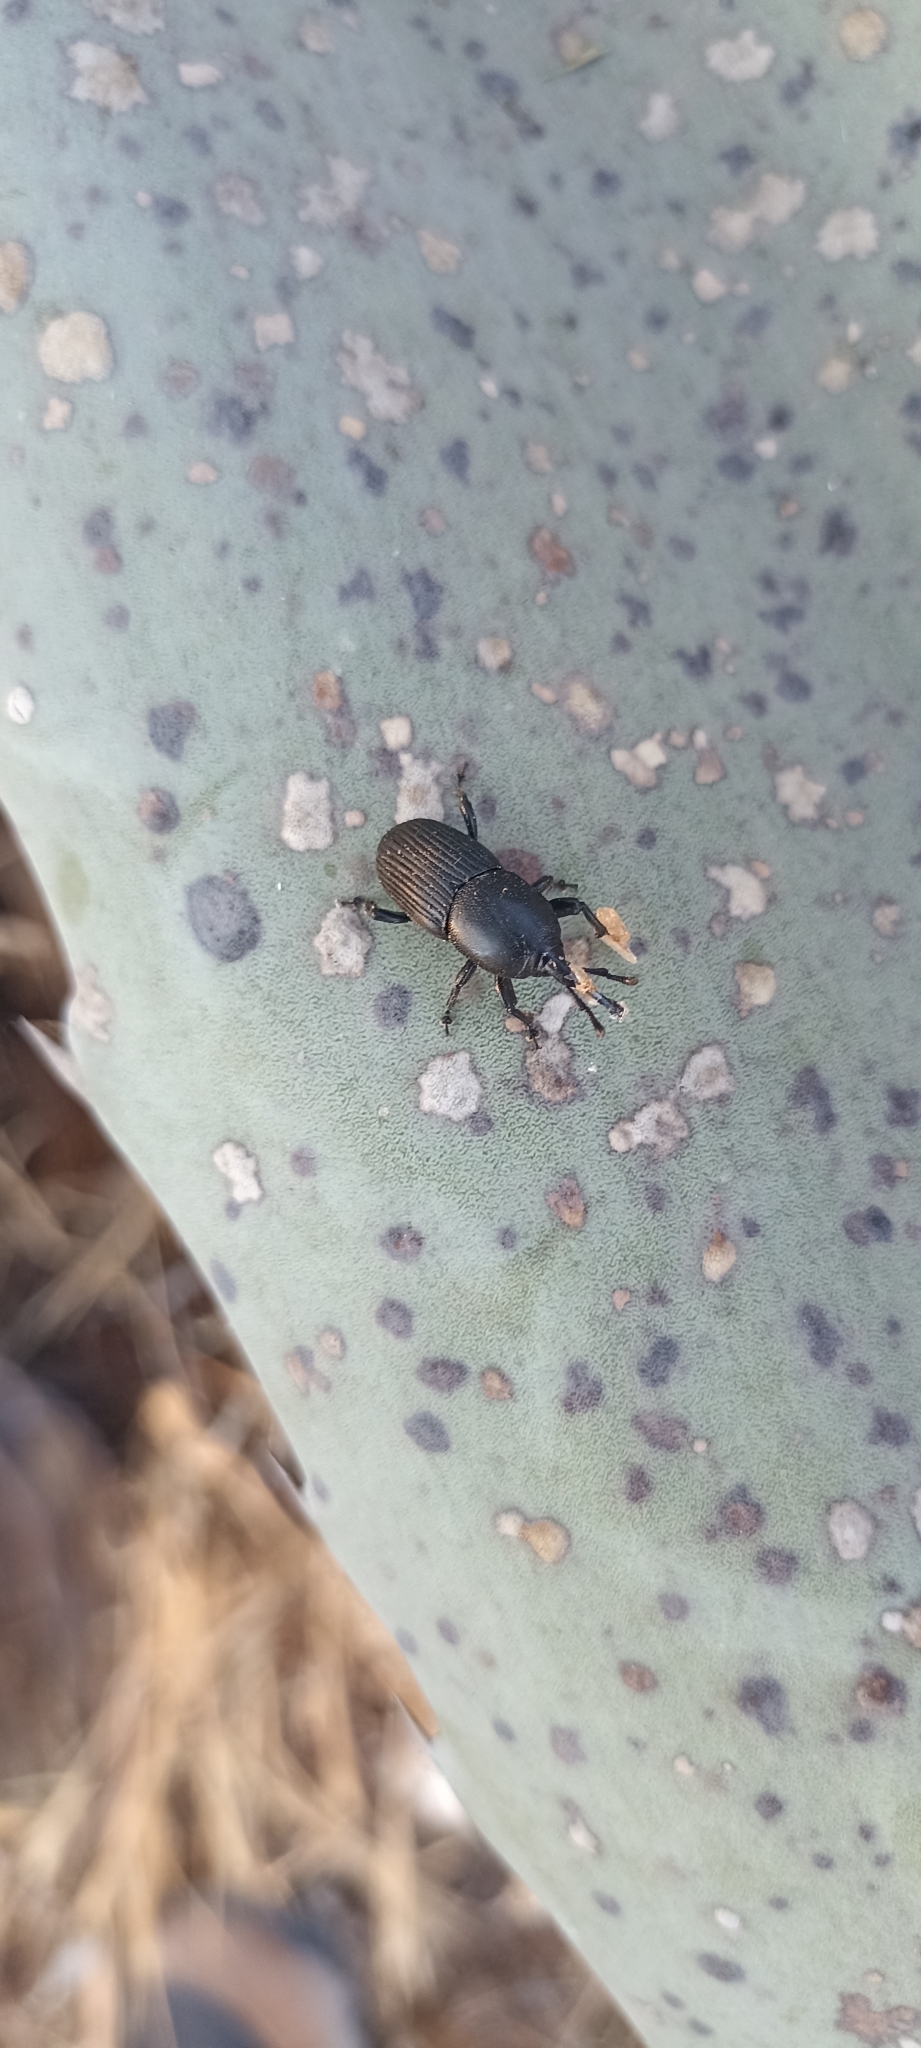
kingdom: Animalia
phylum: Arthropoda
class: Insecta
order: Coleoptera
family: Dryophthoridae
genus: Scyphophorus
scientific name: Scyphophorus acupunctatus
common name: Weevil
